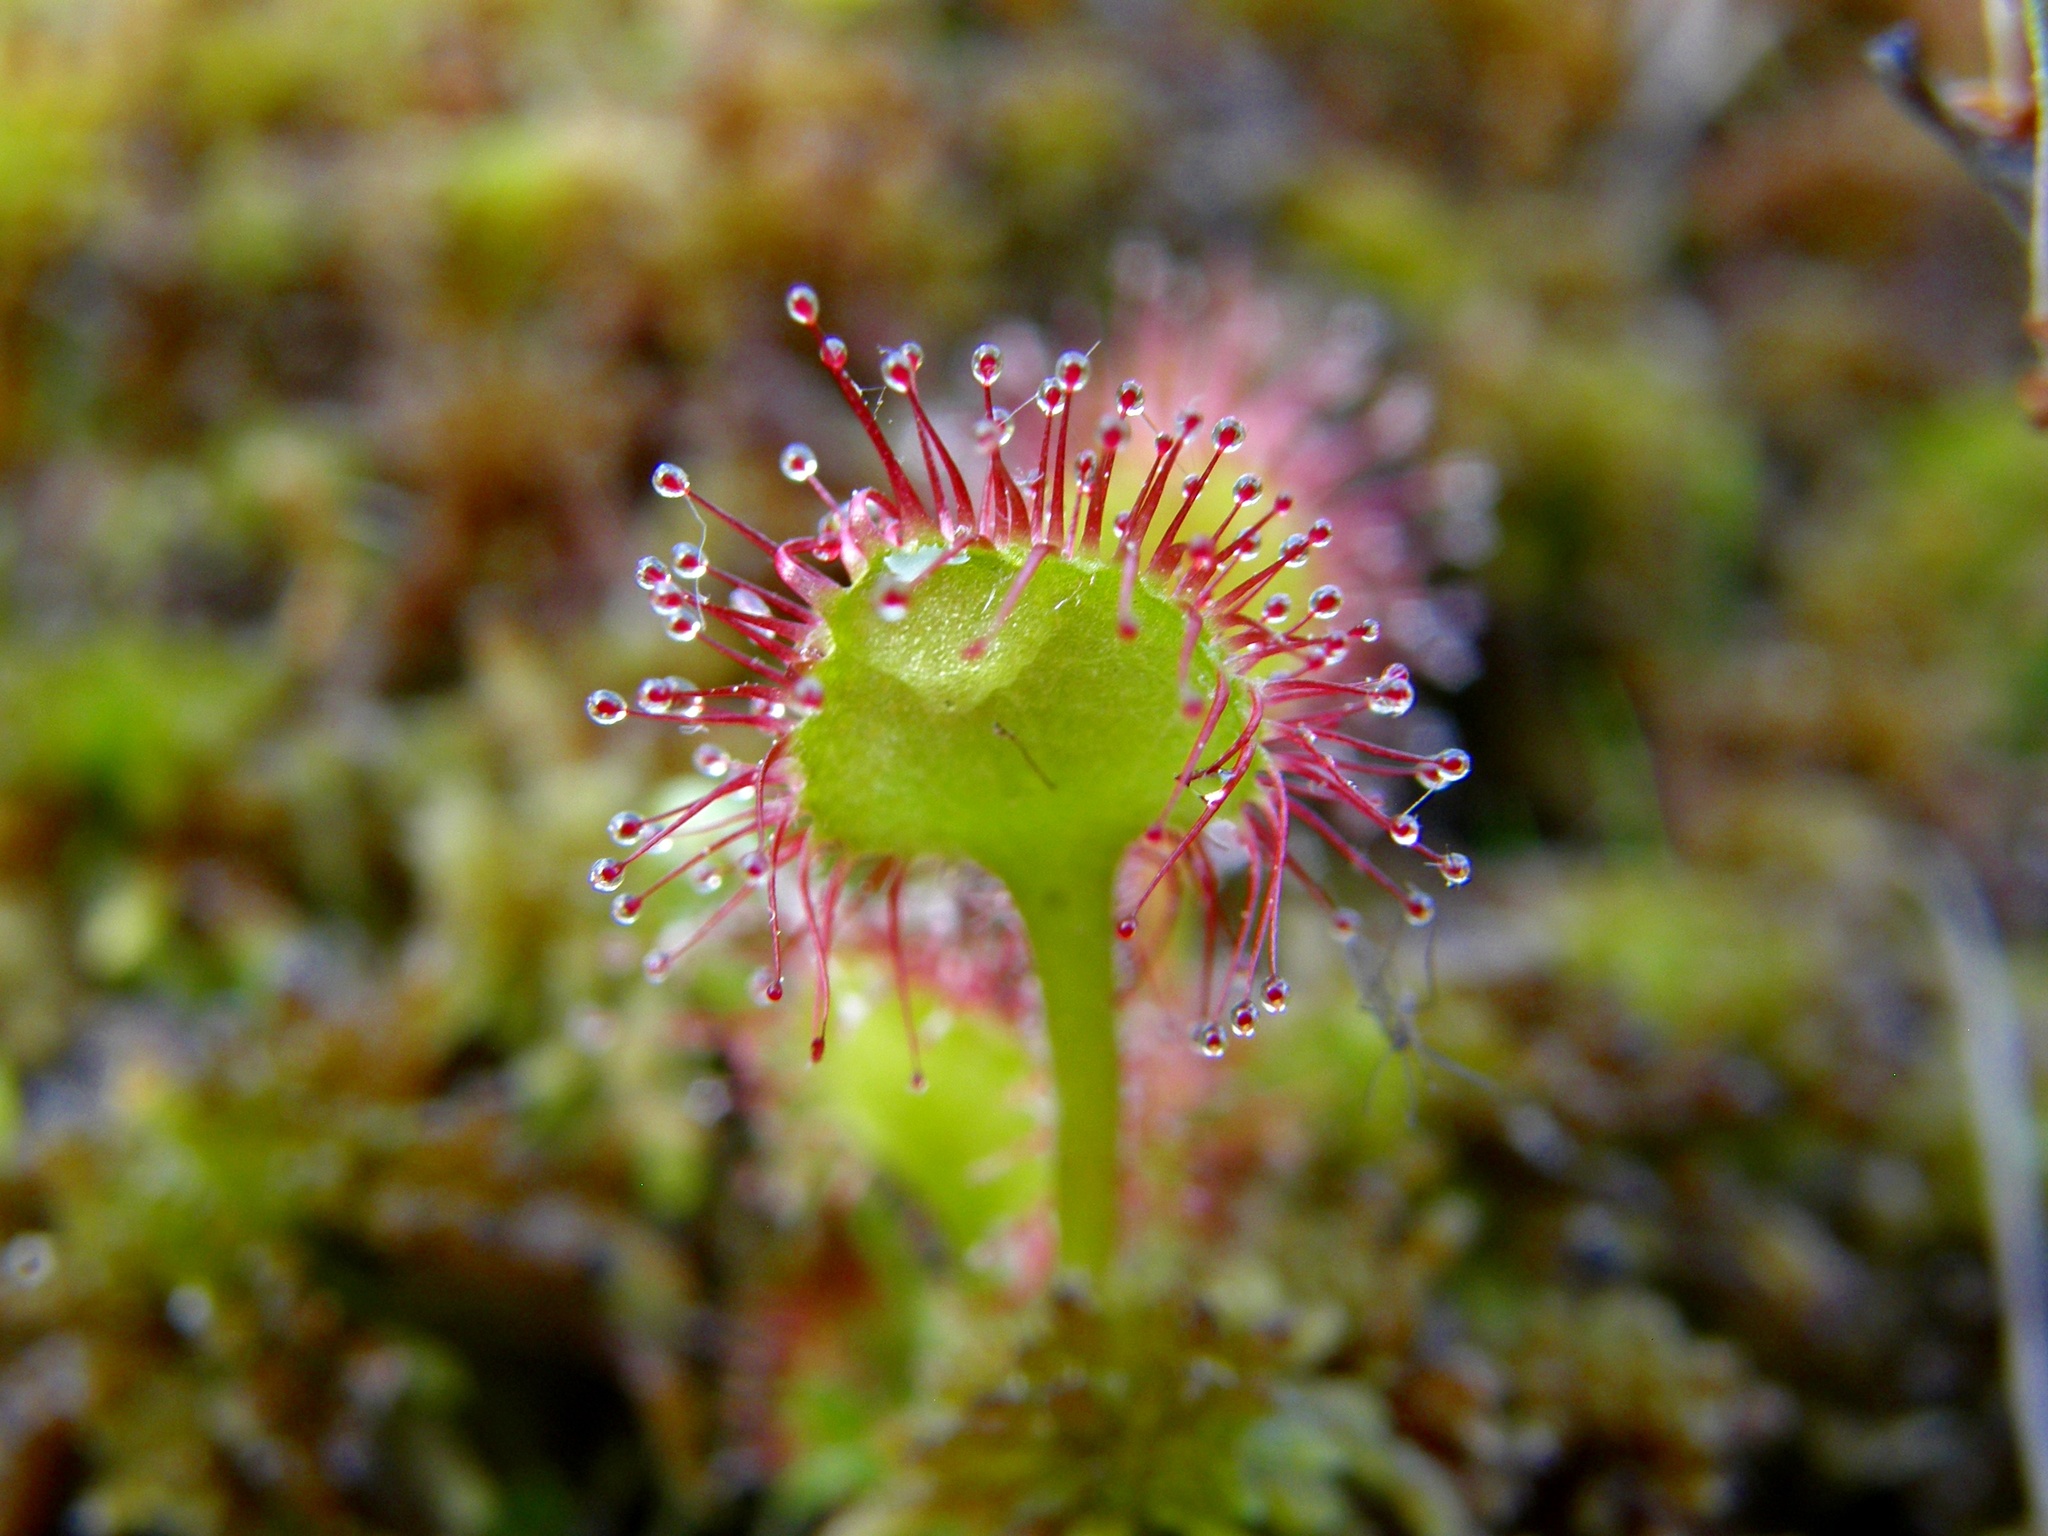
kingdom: Plantae
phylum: Tracheophyta
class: Magnoliopsida
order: Caryophyllales
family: Droseraceae
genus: Drosera
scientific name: Drosera rotundifolia
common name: Round-leaved sundew
